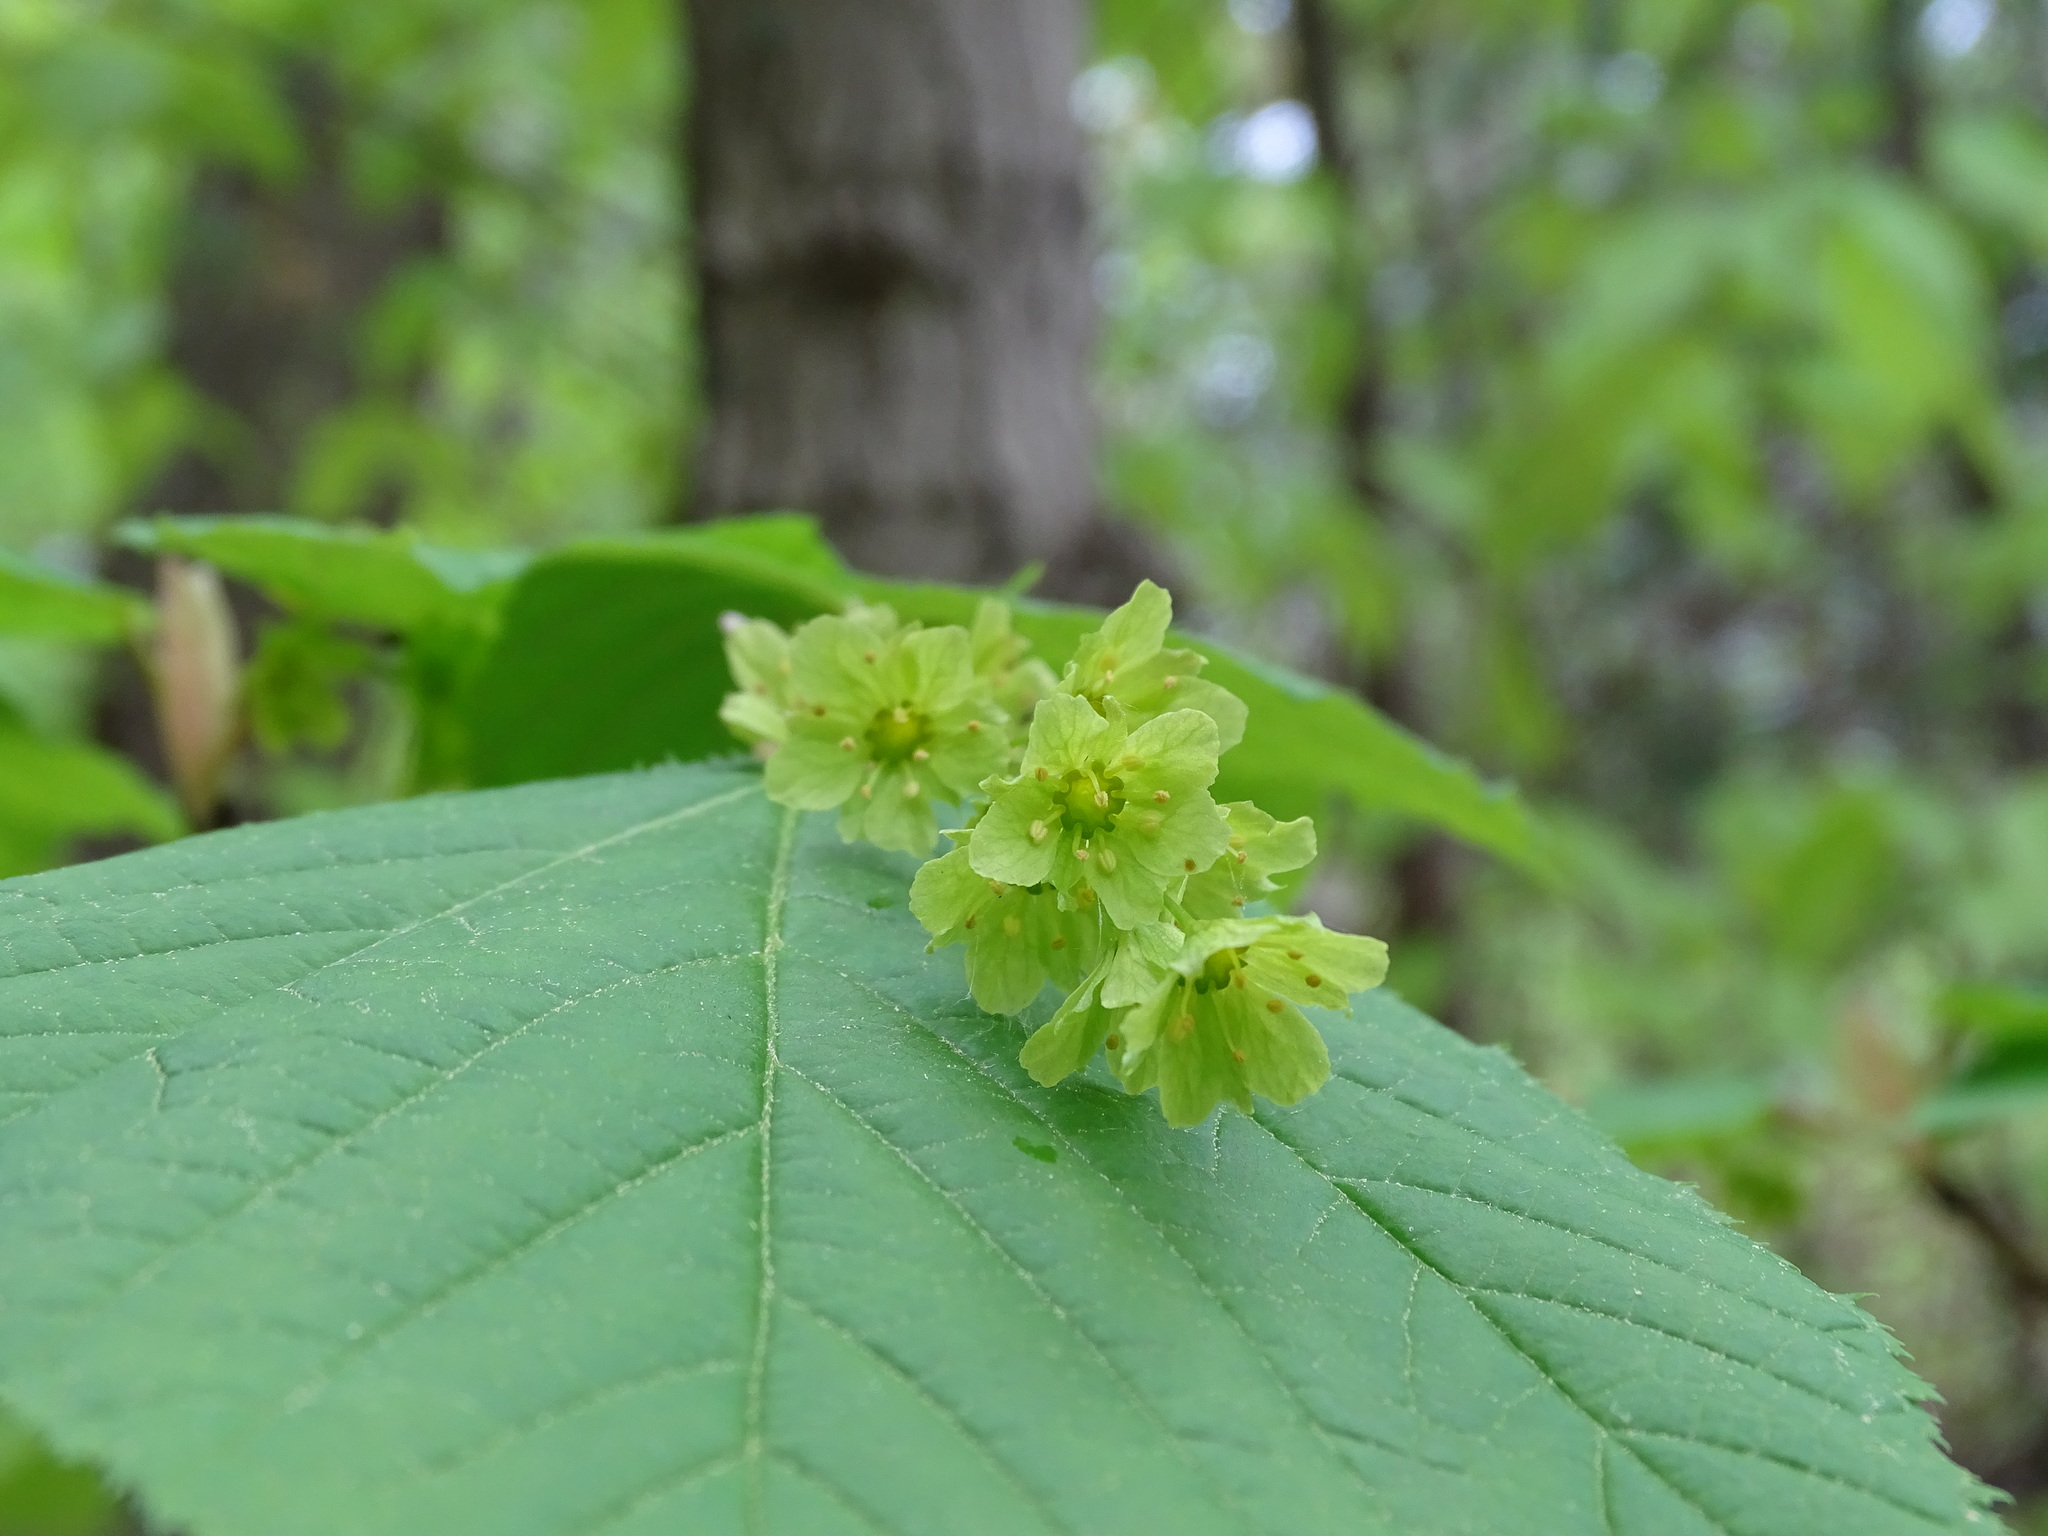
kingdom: Plantae
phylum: Tracheophyta
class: Magnoliopsida
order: Sapindales
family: Sapindaceae
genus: Acer
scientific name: Acer pensylvanicum
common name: Moosewood
